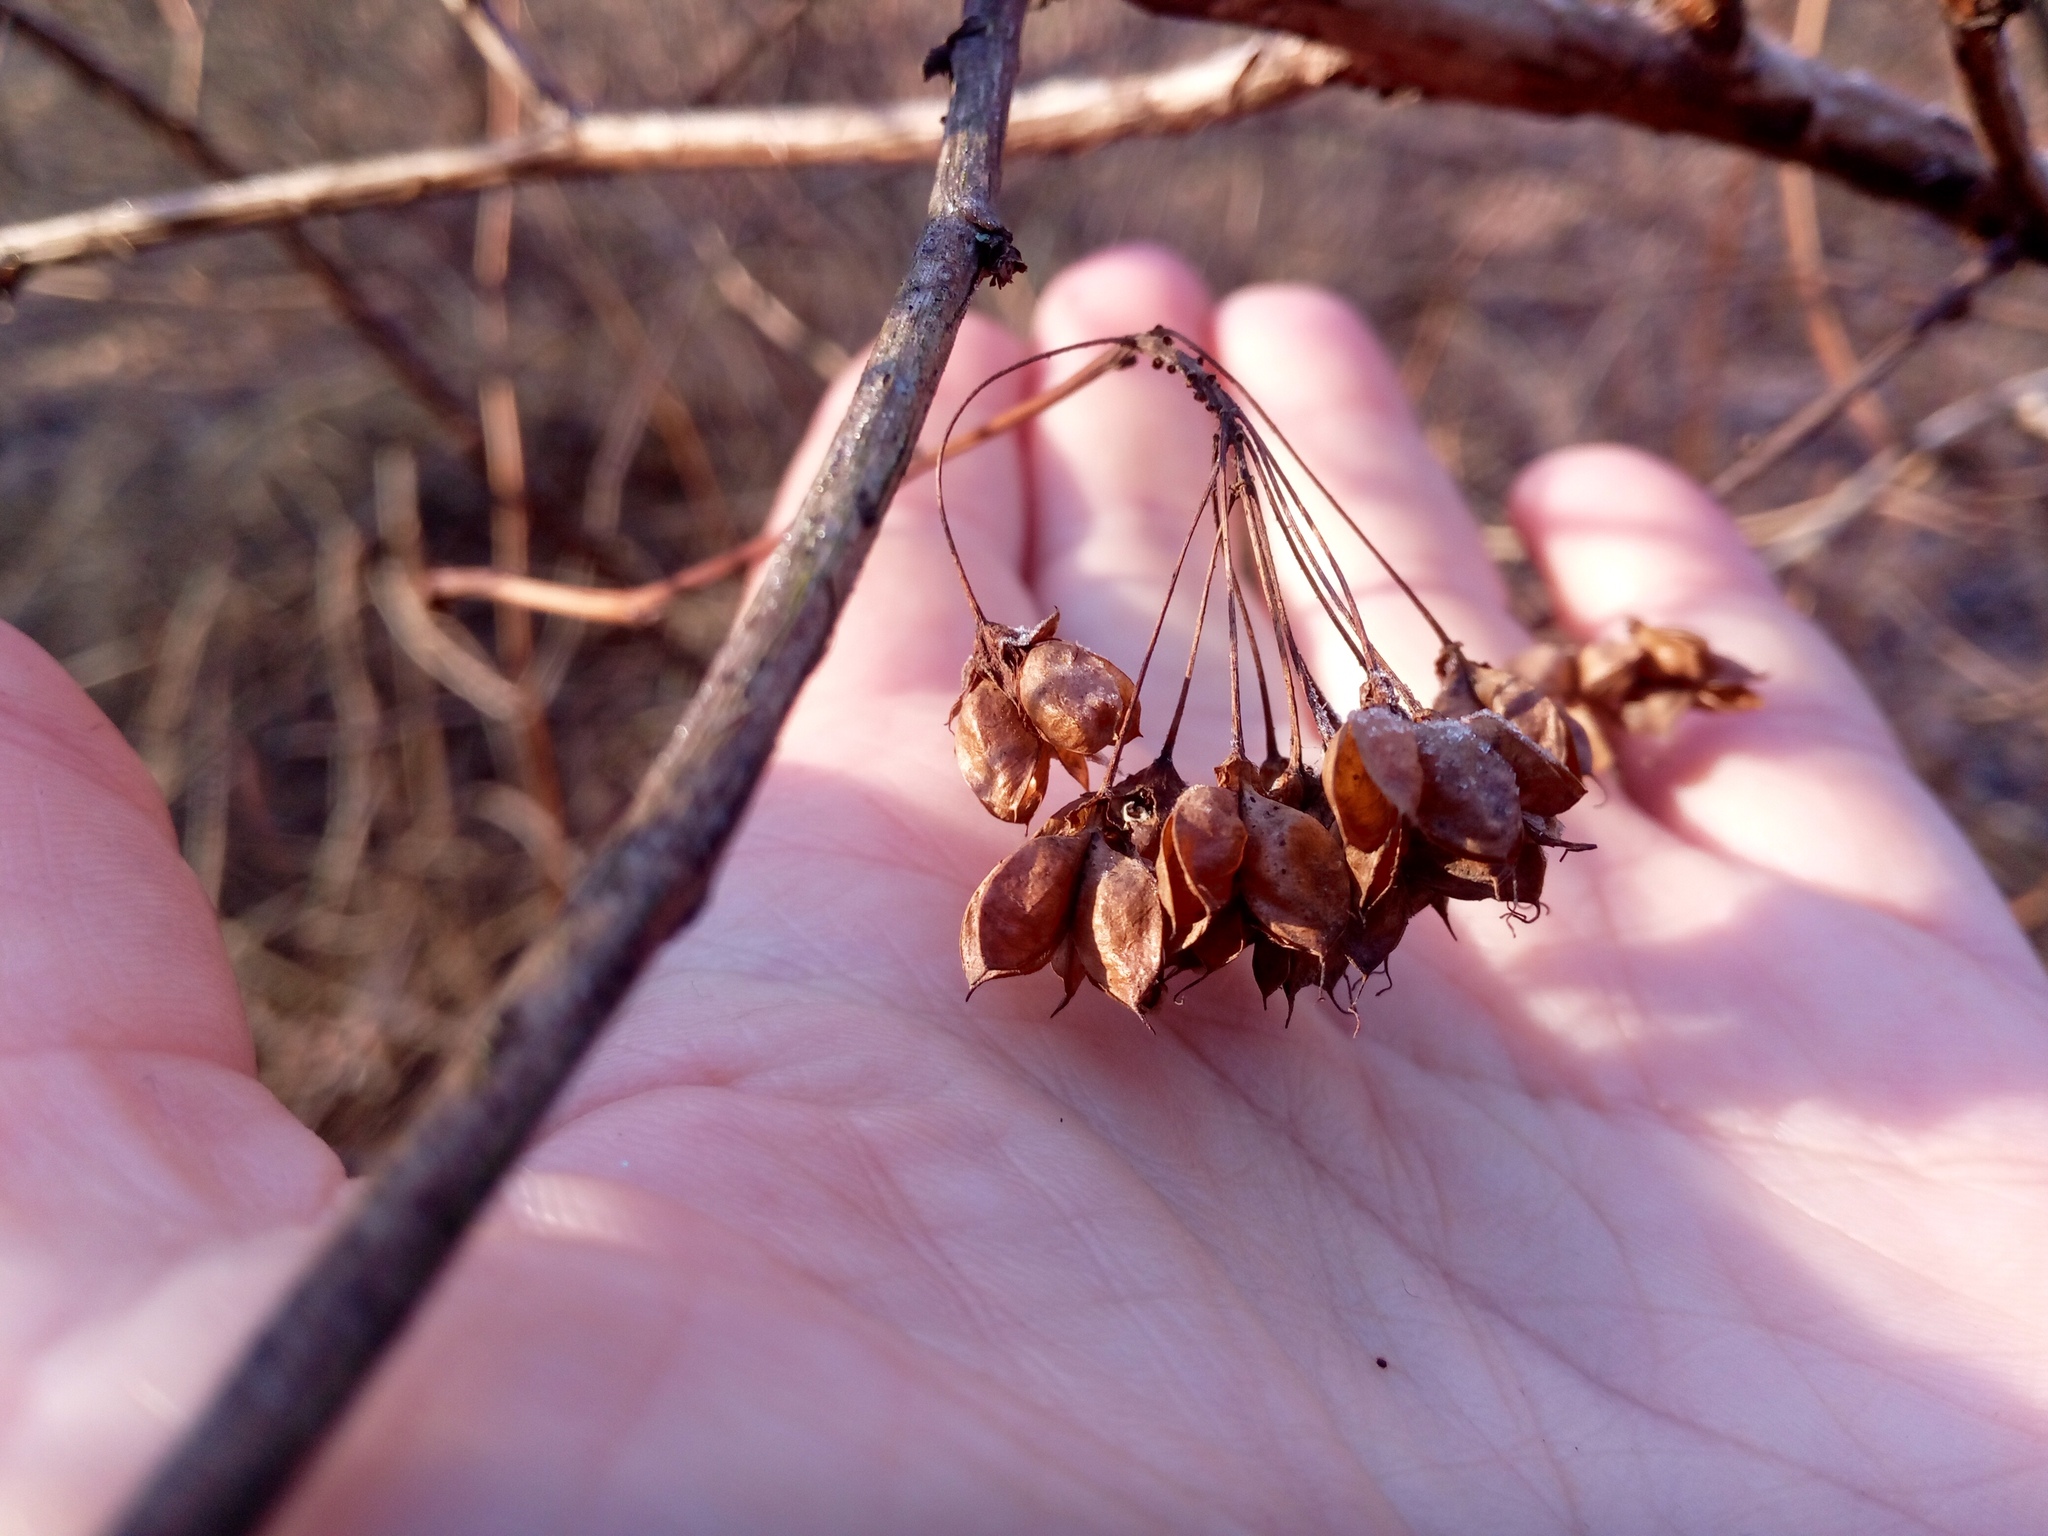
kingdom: Plantae
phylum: Tracheophyta
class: Magnoliopsida
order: Rosales
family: Rosaceae
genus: Physocarpus
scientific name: Physocarpus opulifolius
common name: Ninebark
